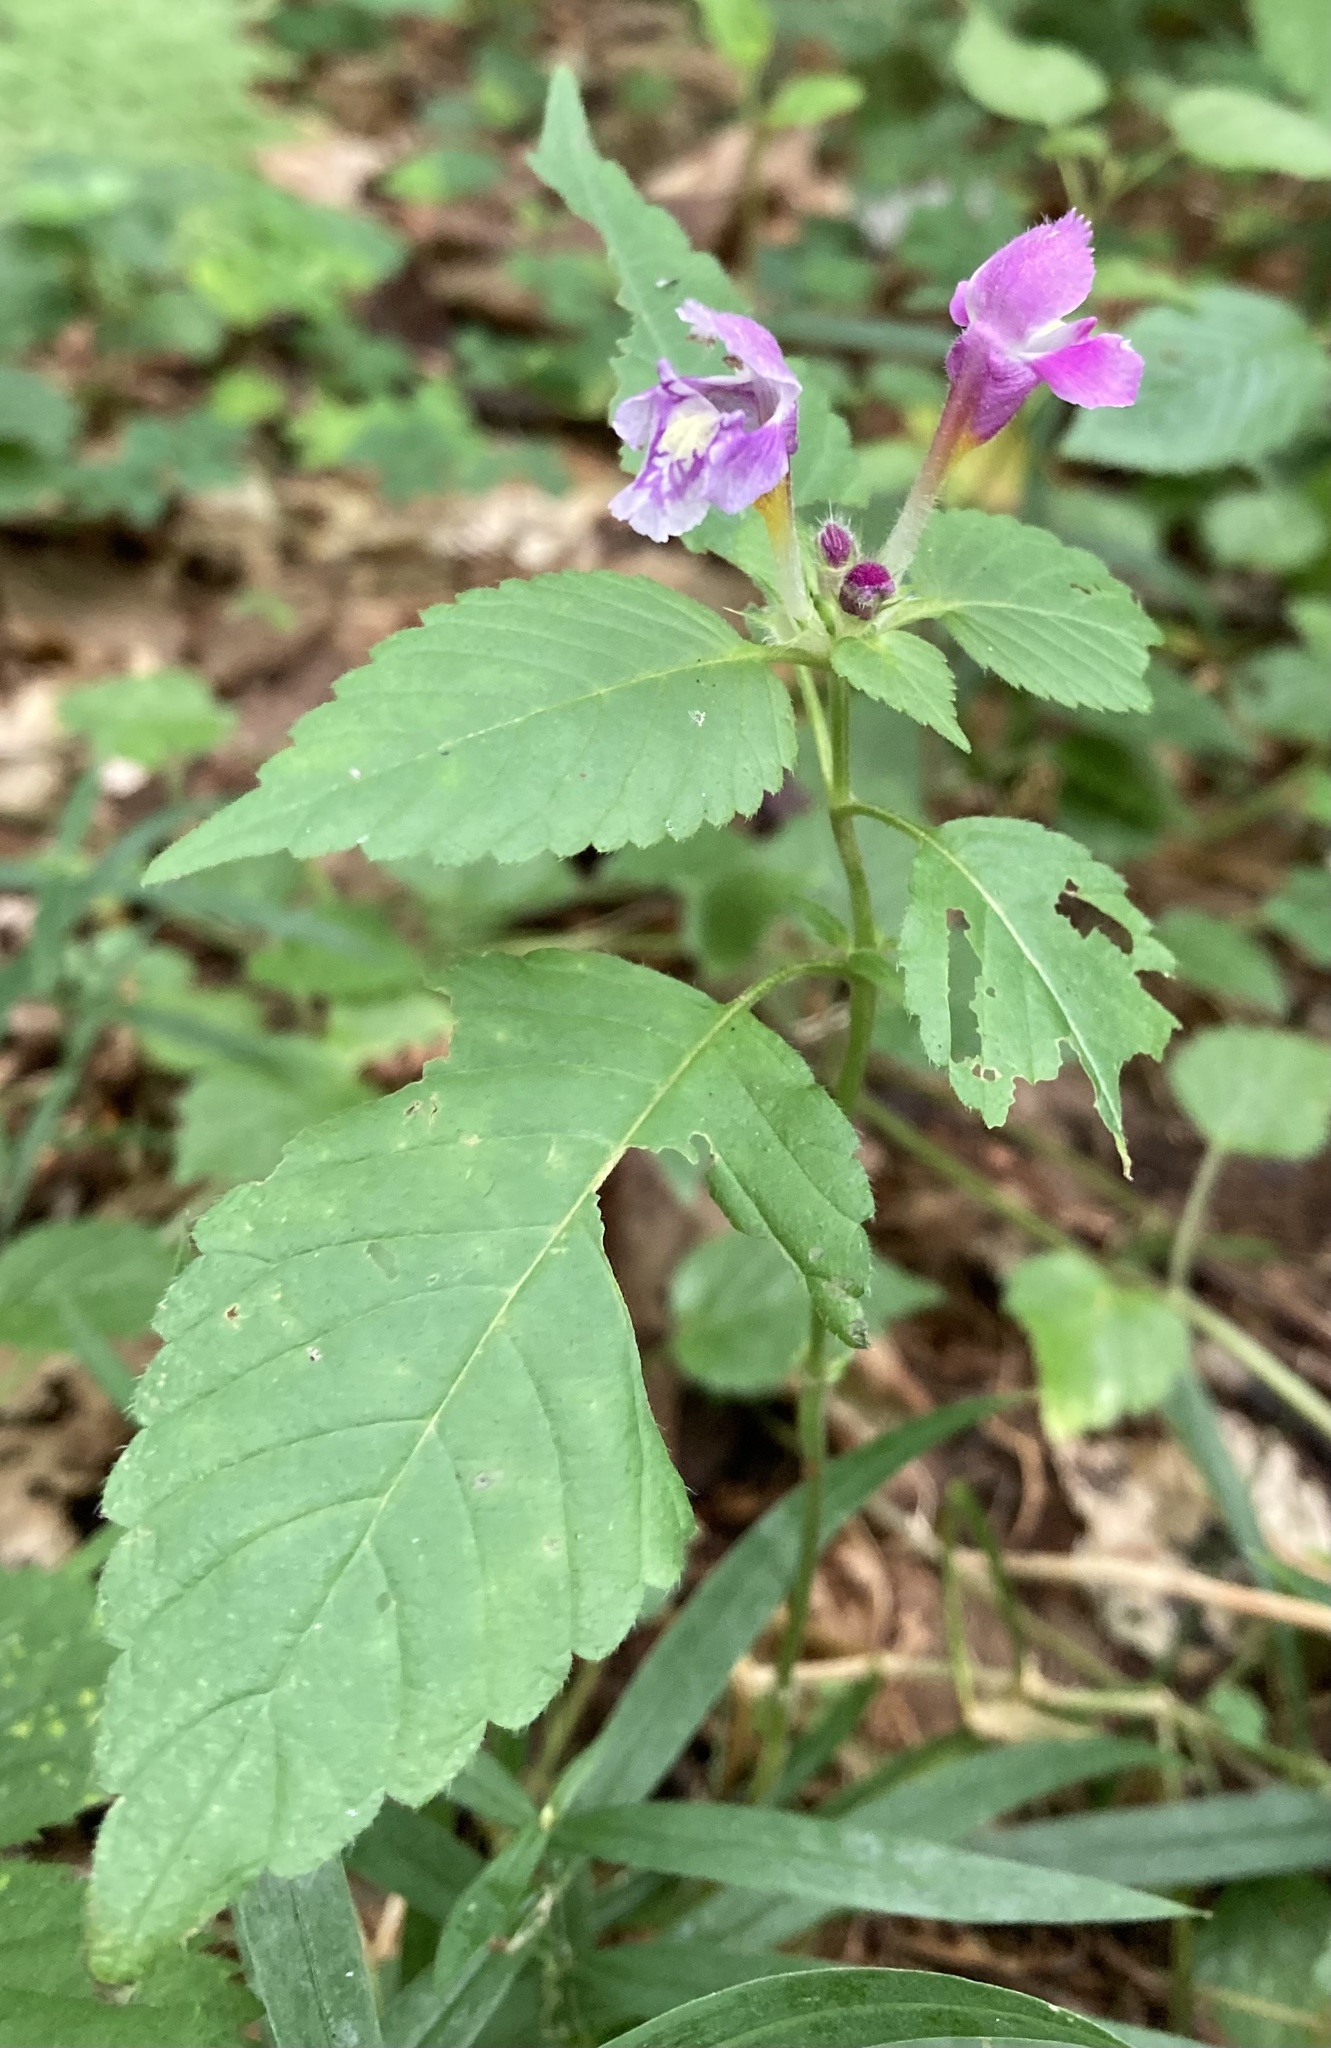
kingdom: Plantae
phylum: Tracheophyta
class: Magnoliopsida
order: Lamiales
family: Lamiaceae
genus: Galeopsis
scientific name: Galeopsis pubescens
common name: Downy hemp-nettle
